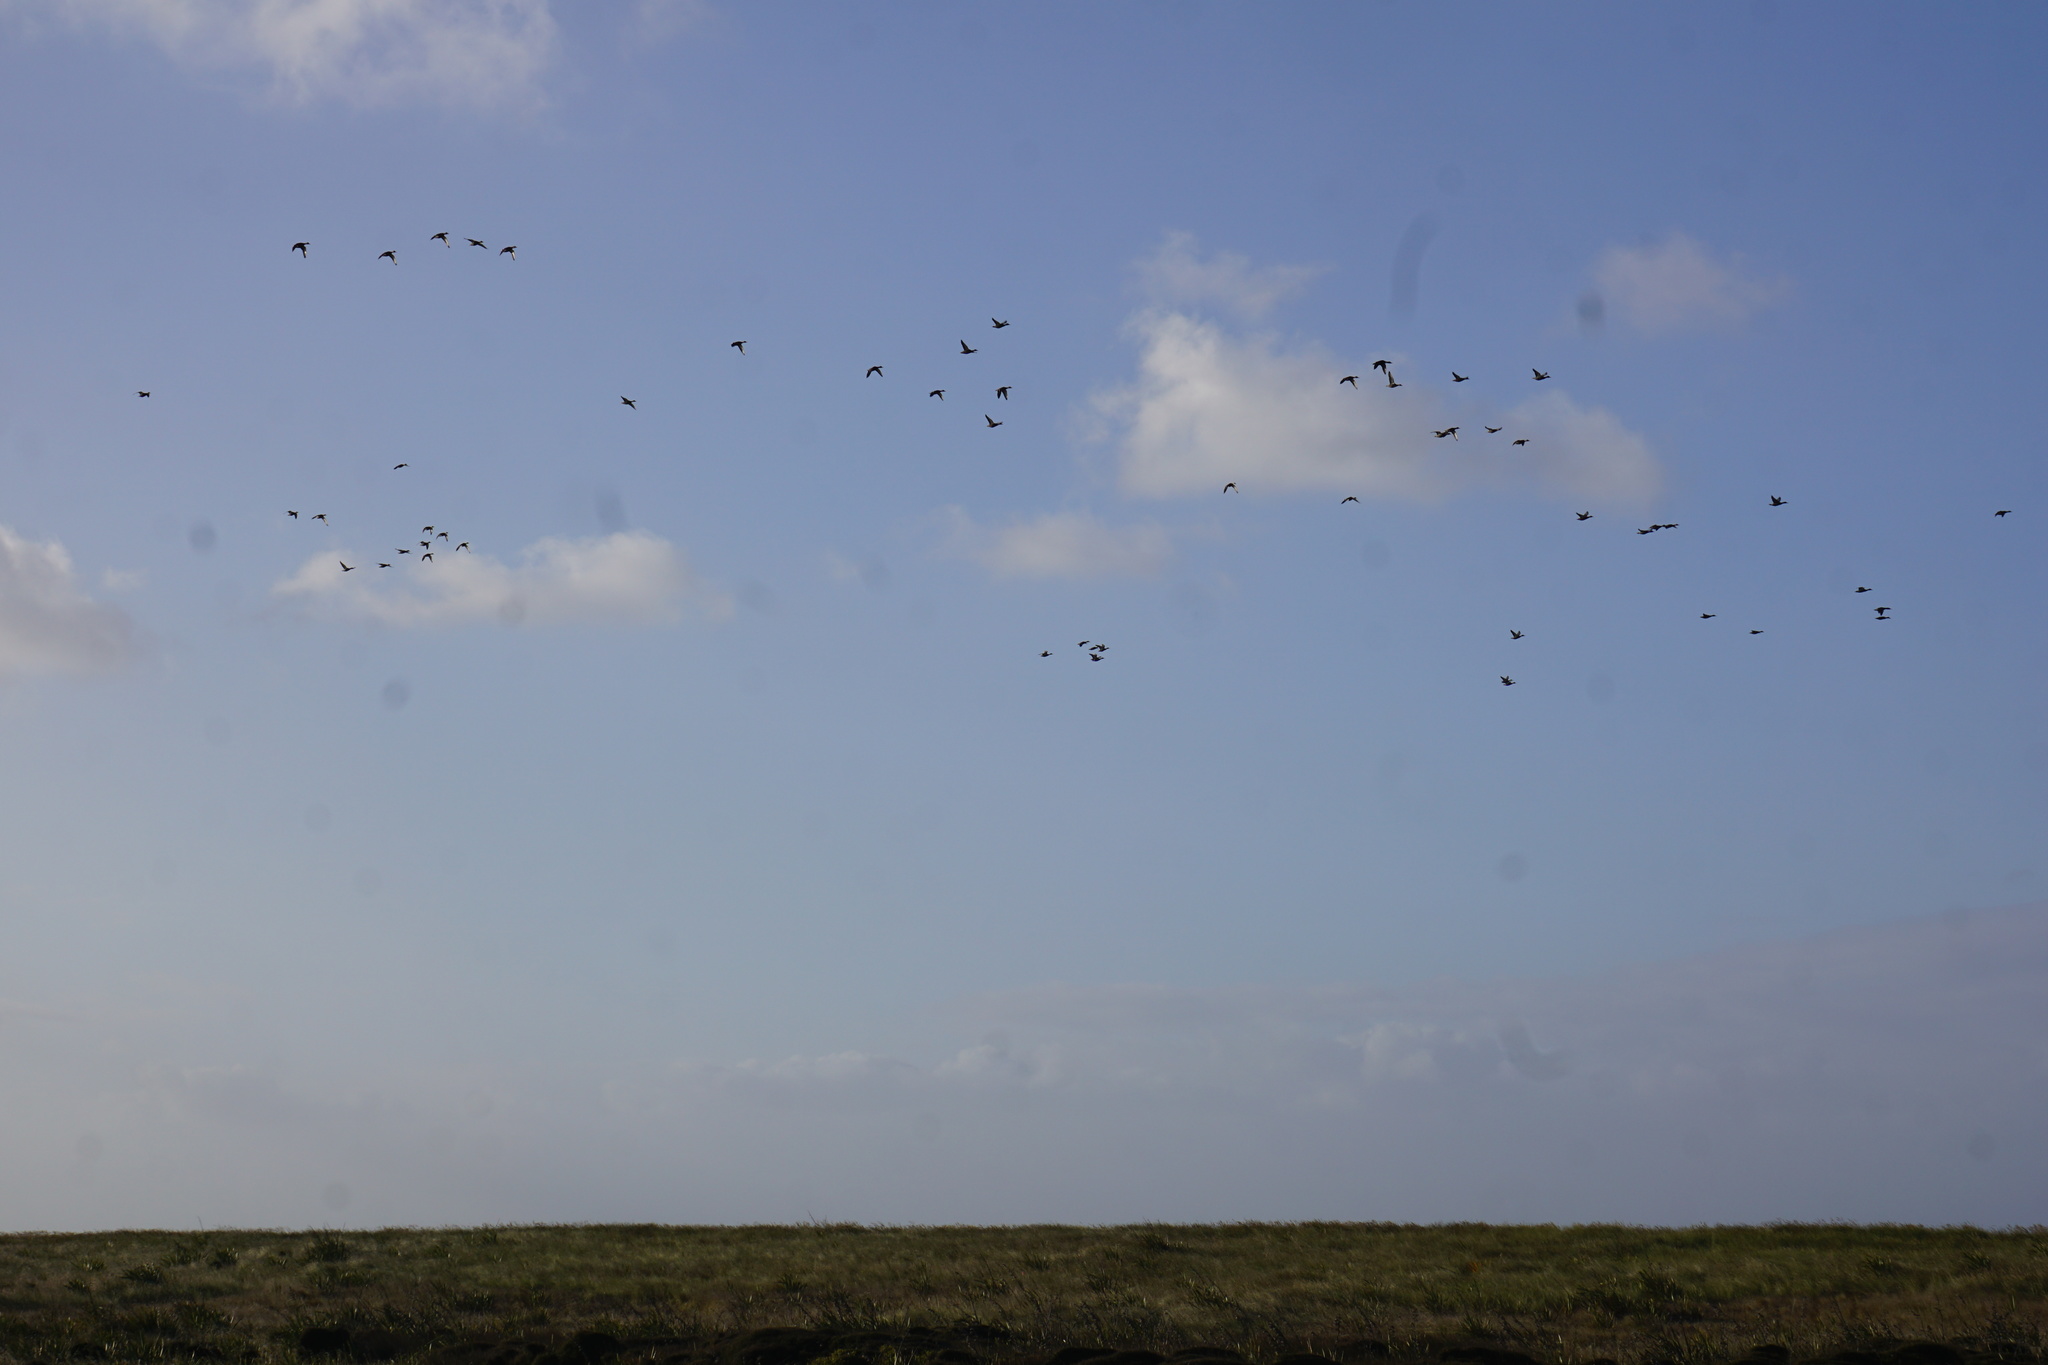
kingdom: Animalia
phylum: Chordata
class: Aves
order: Anseriformes
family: Anatidae
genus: Anas
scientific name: Anas
